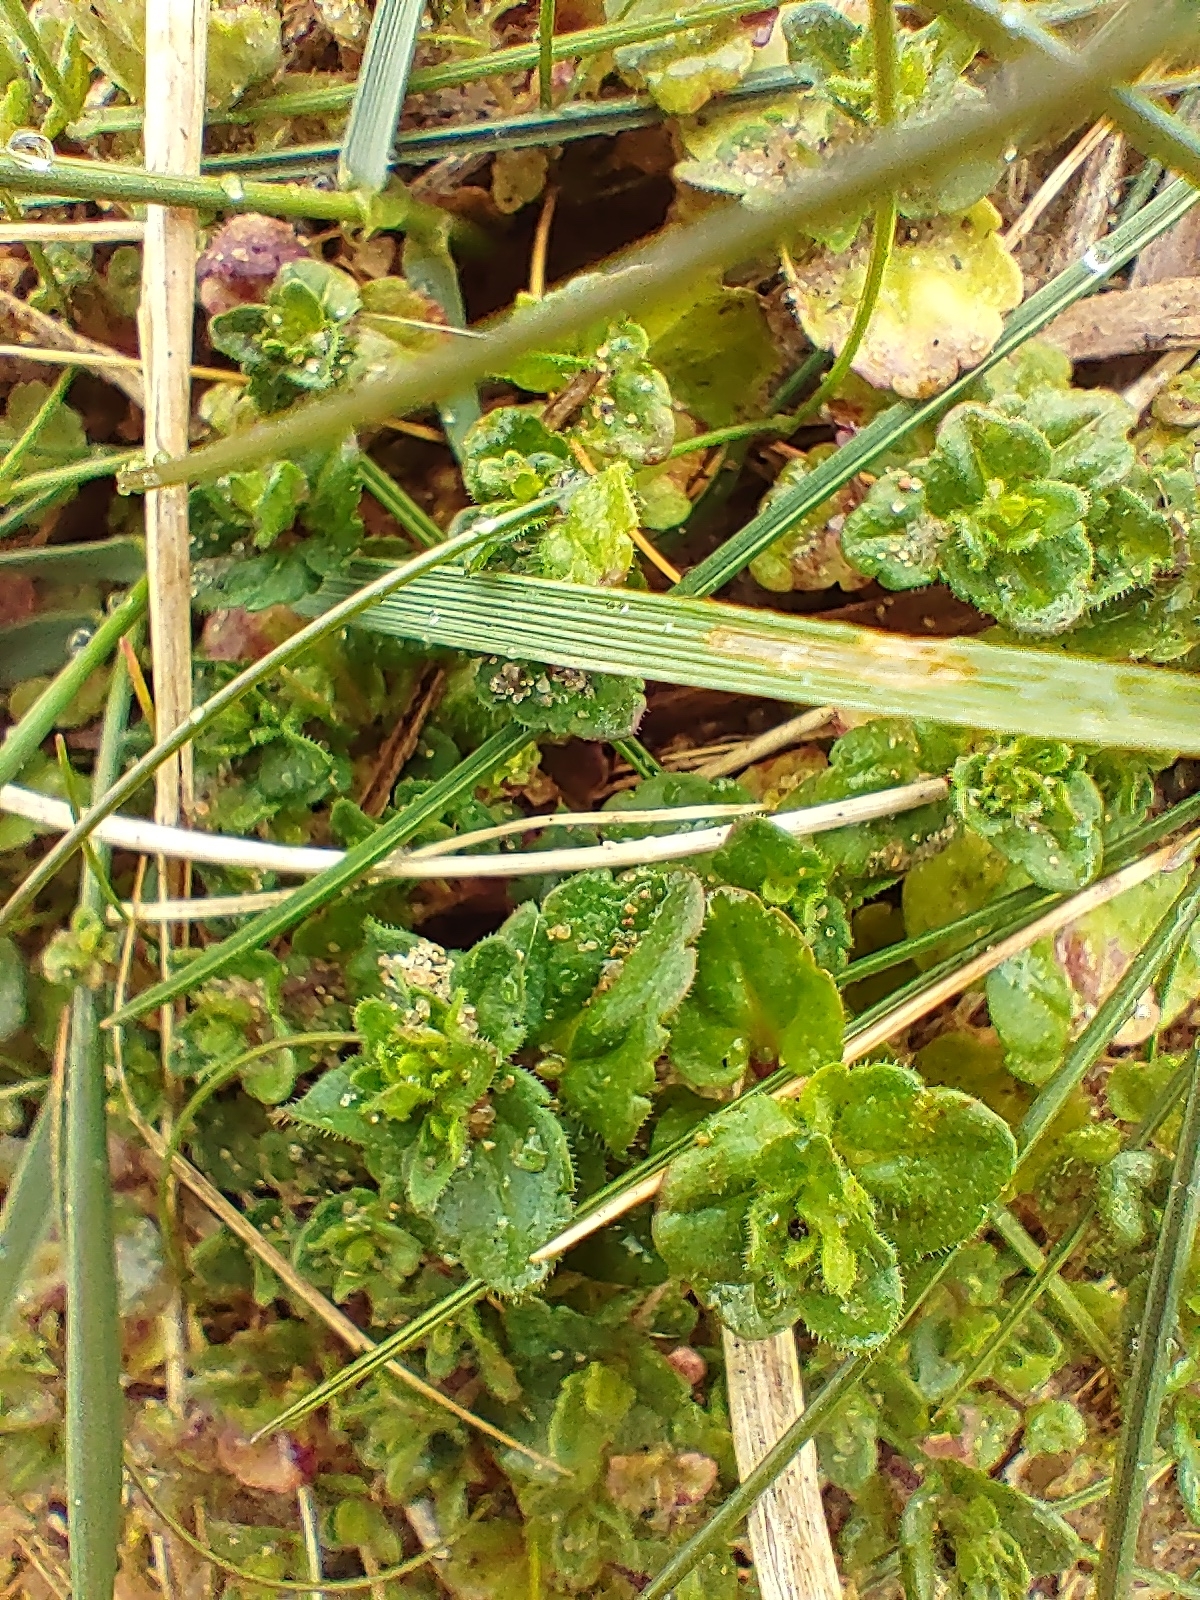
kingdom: Plantae
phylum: Tracheophyta
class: Magnoliopsida
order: Lamiales
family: Plantaginaceae
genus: Veronica
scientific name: Veronica arvensis
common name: Corn speedwell
